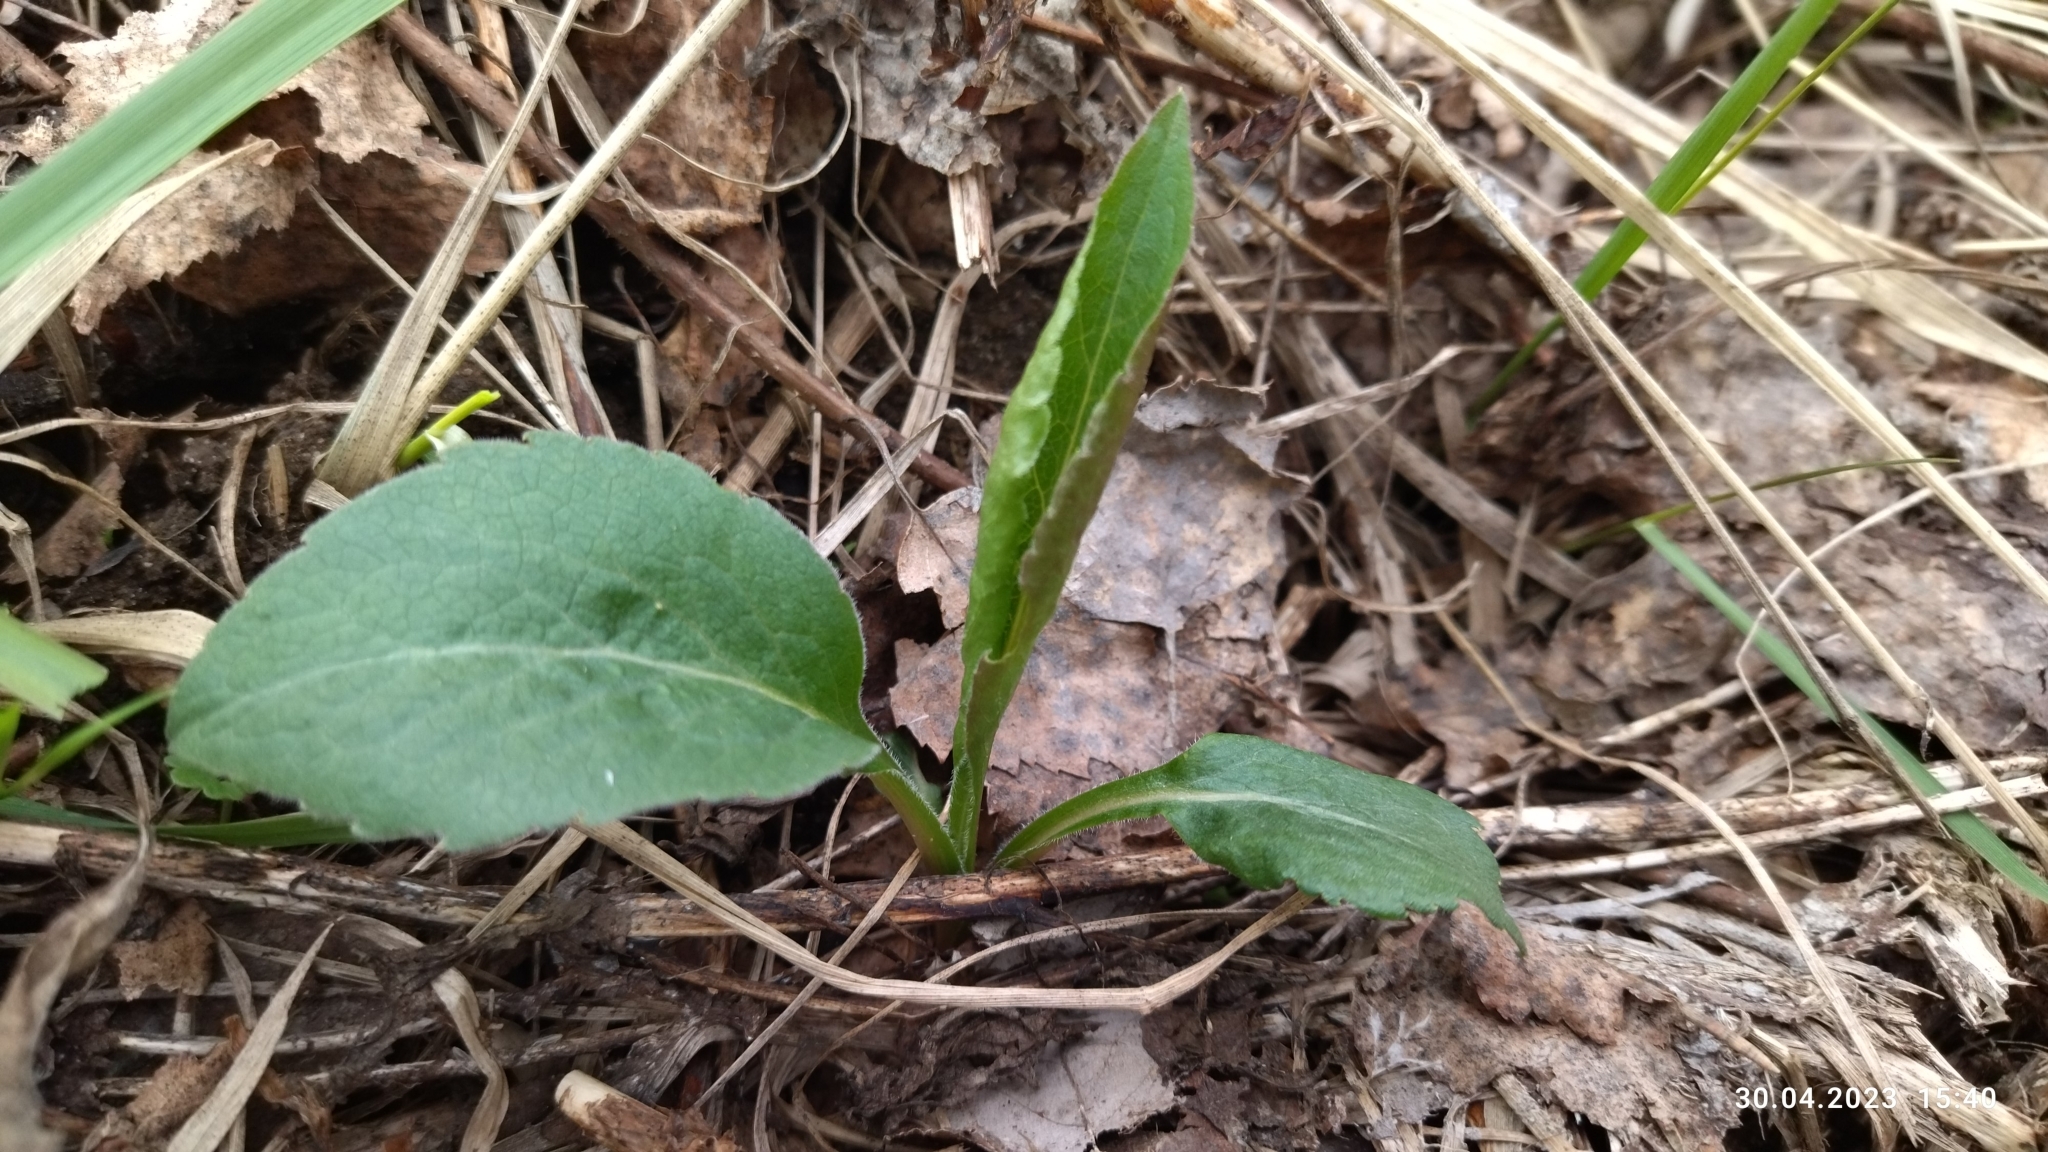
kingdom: Plantae
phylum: Tracheophyta
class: Magnoliopsida
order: Asterales
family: Asteraceae
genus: Solidago
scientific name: Solidago virgaurea
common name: Goldenrod
